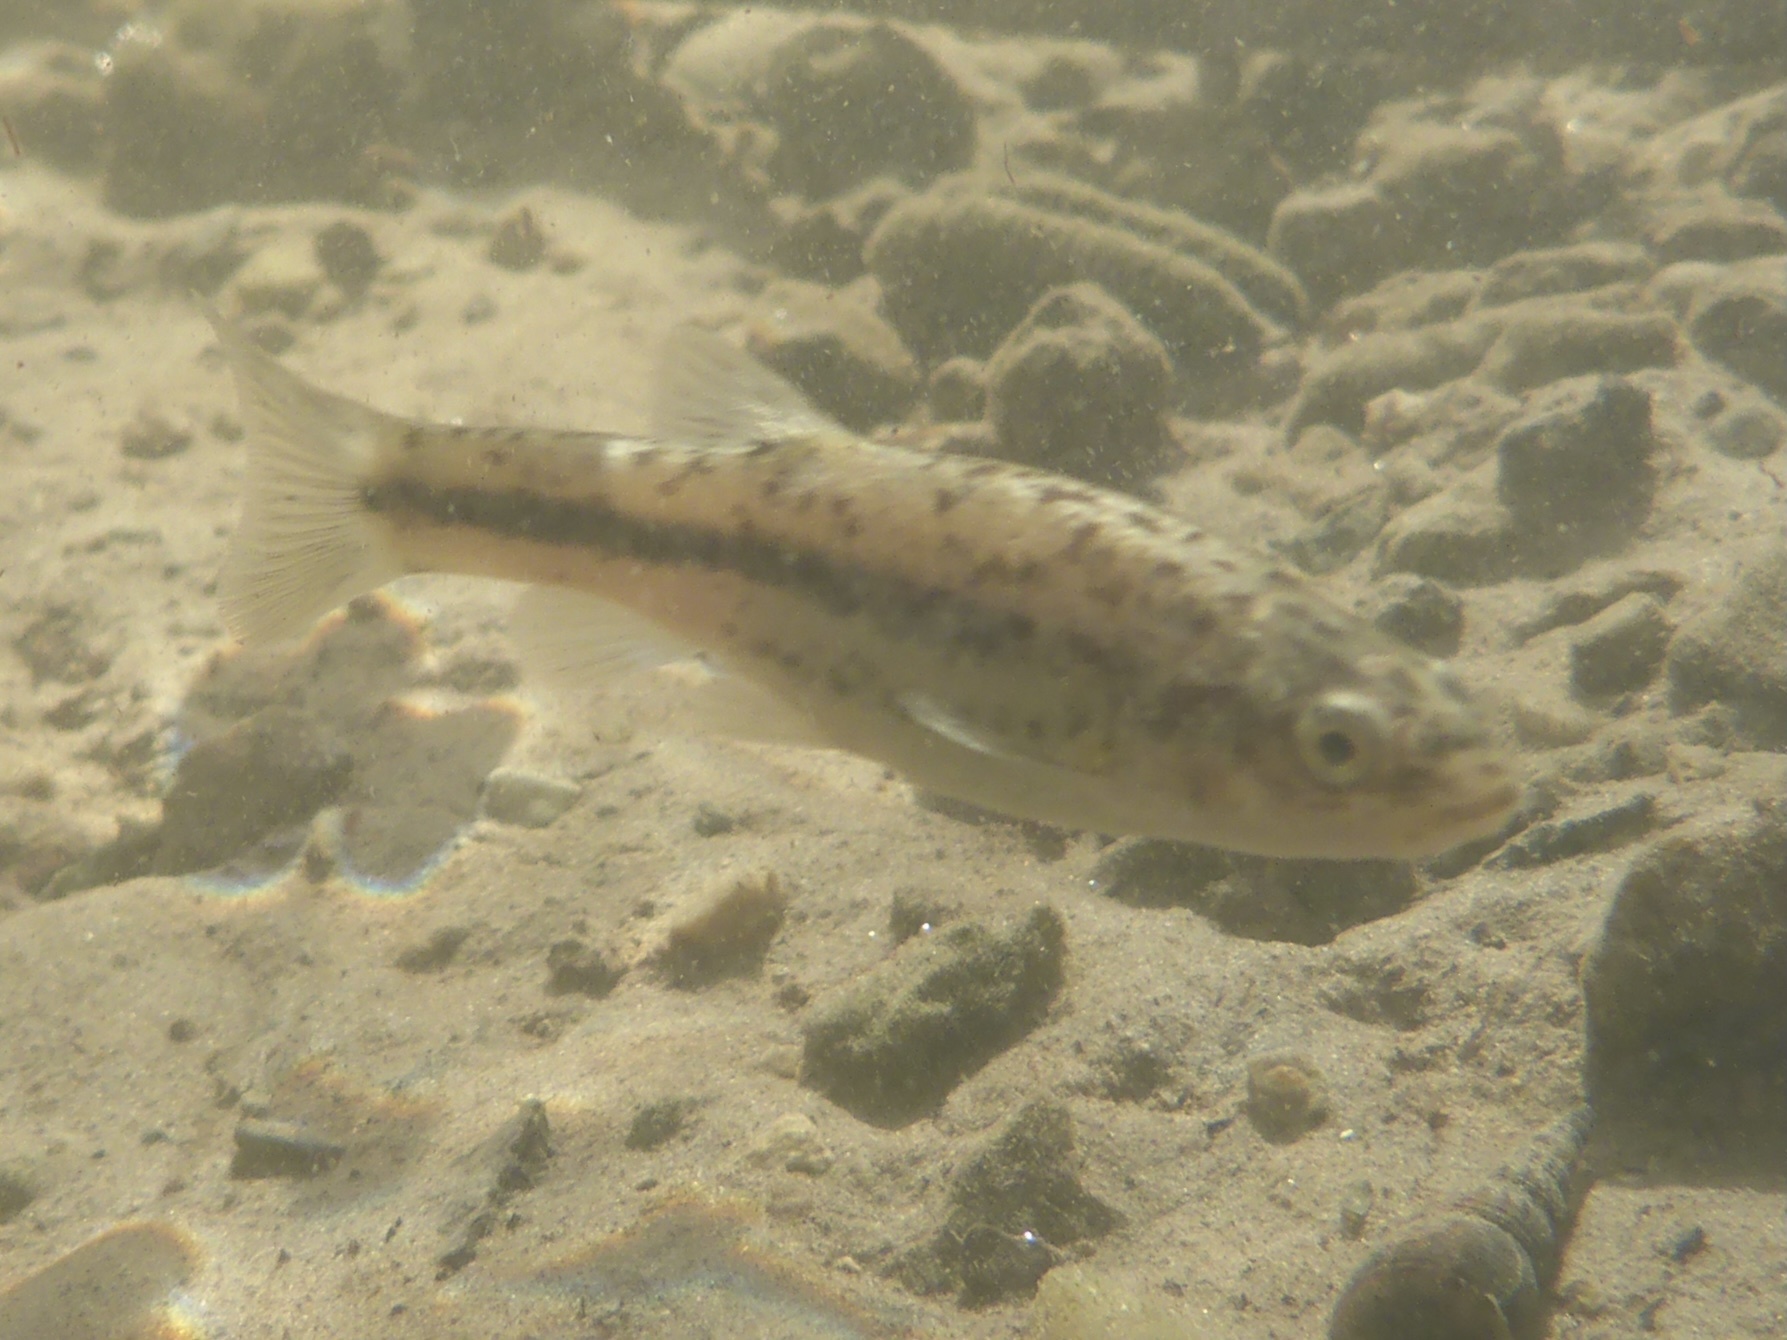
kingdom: Animalia
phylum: Chordata
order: Cypriniformes
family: Cyprinidae
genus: Rhinichthys
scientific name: Rhinichthys osculus
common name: Speckled dace
